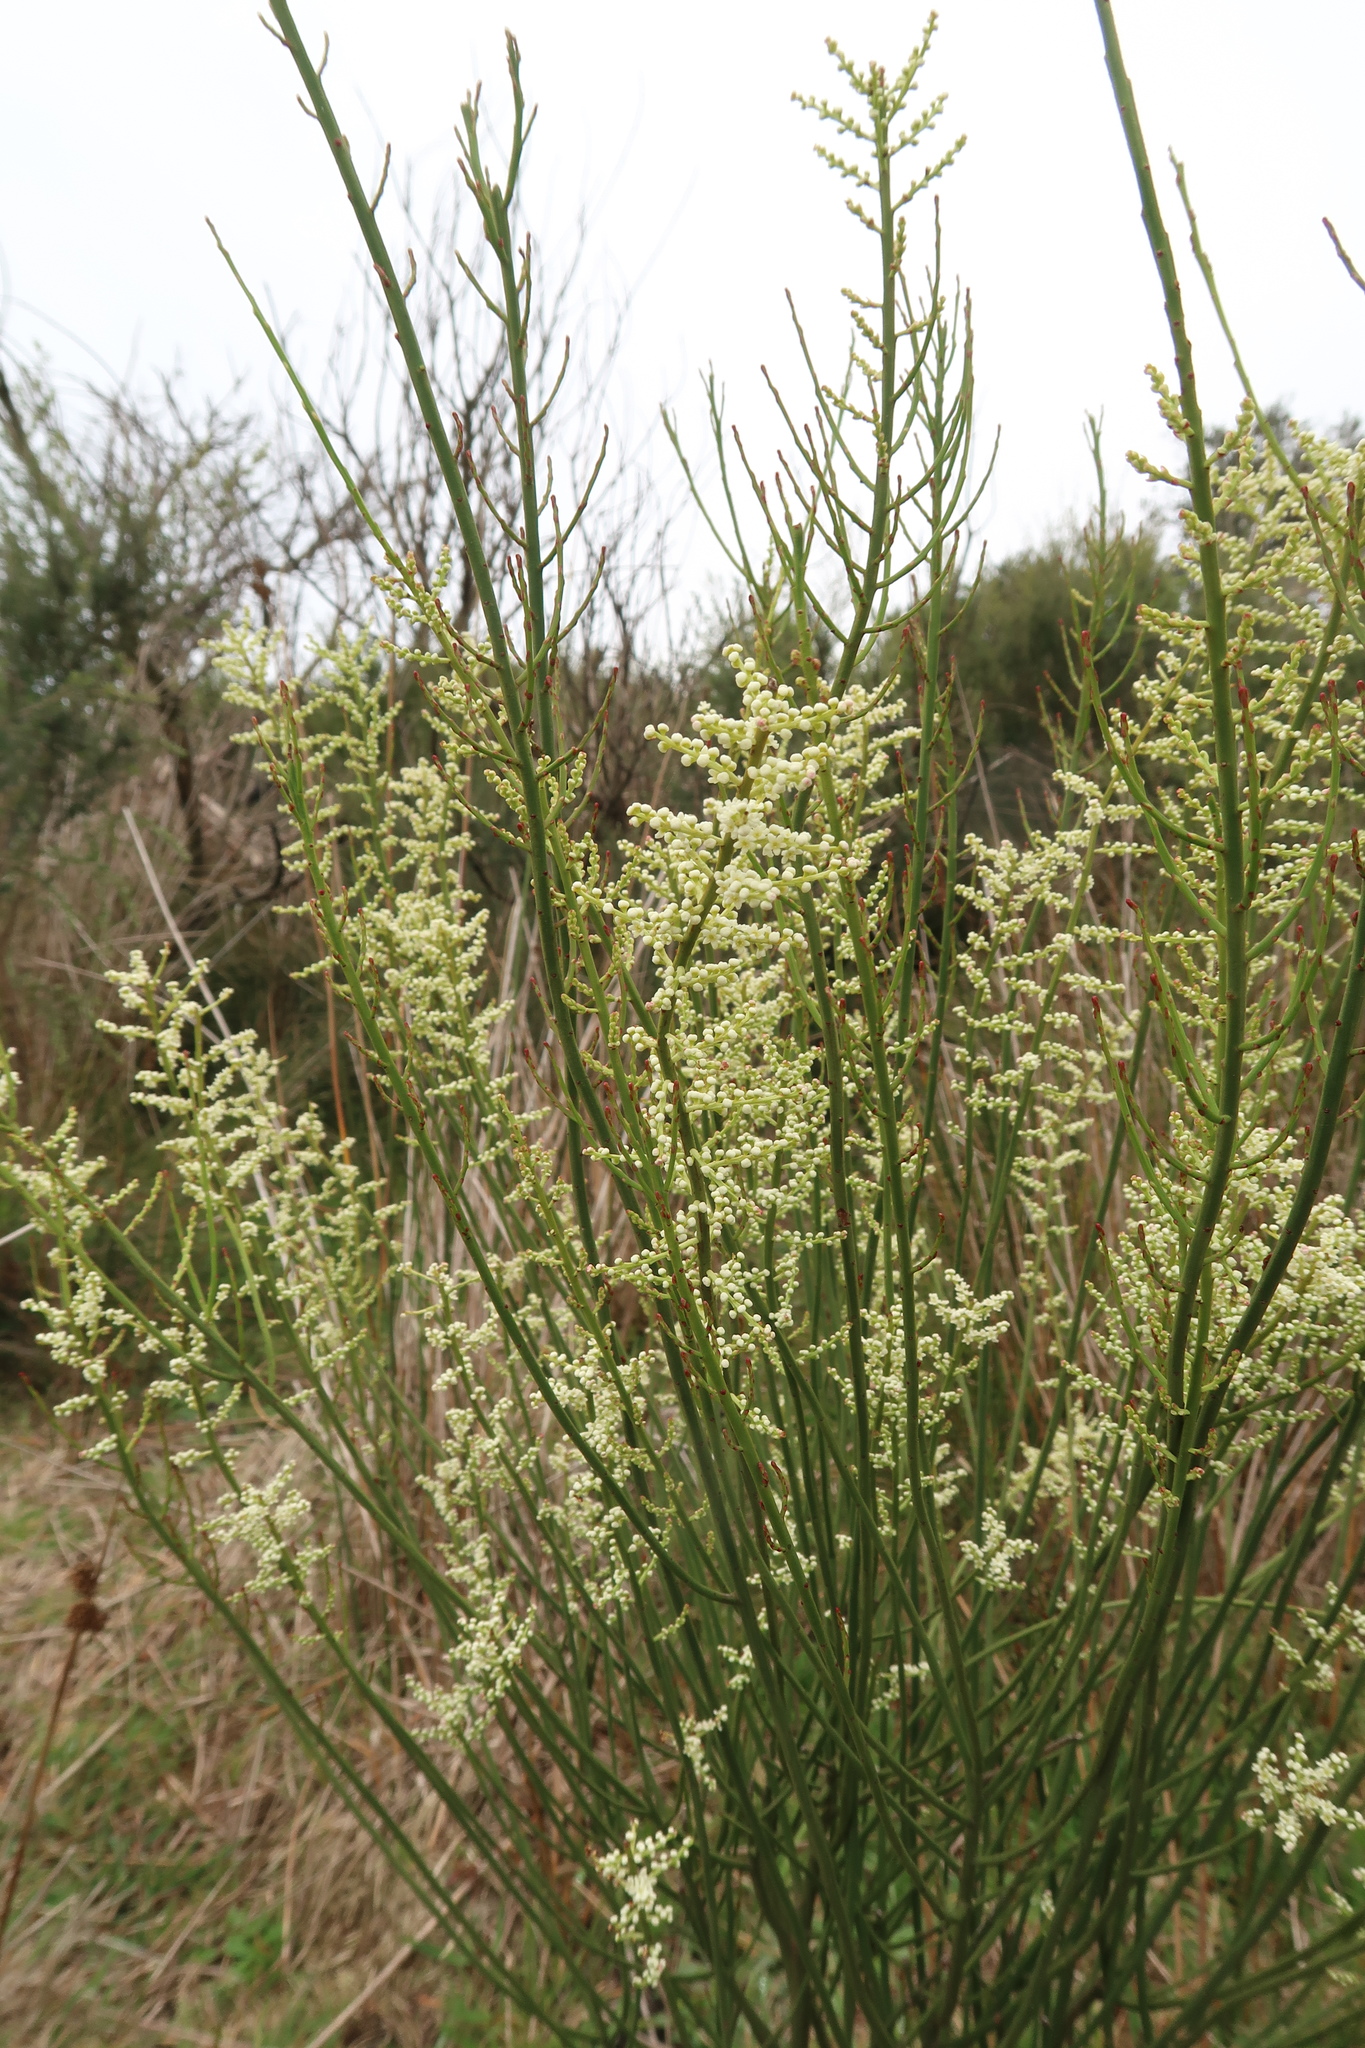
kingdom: Plantae
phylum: Tracheophyta
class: Magnoliopsida
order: Santalales
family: Amphorogynaceae
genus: Leptomeria
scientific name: Leptomeria drupacea
